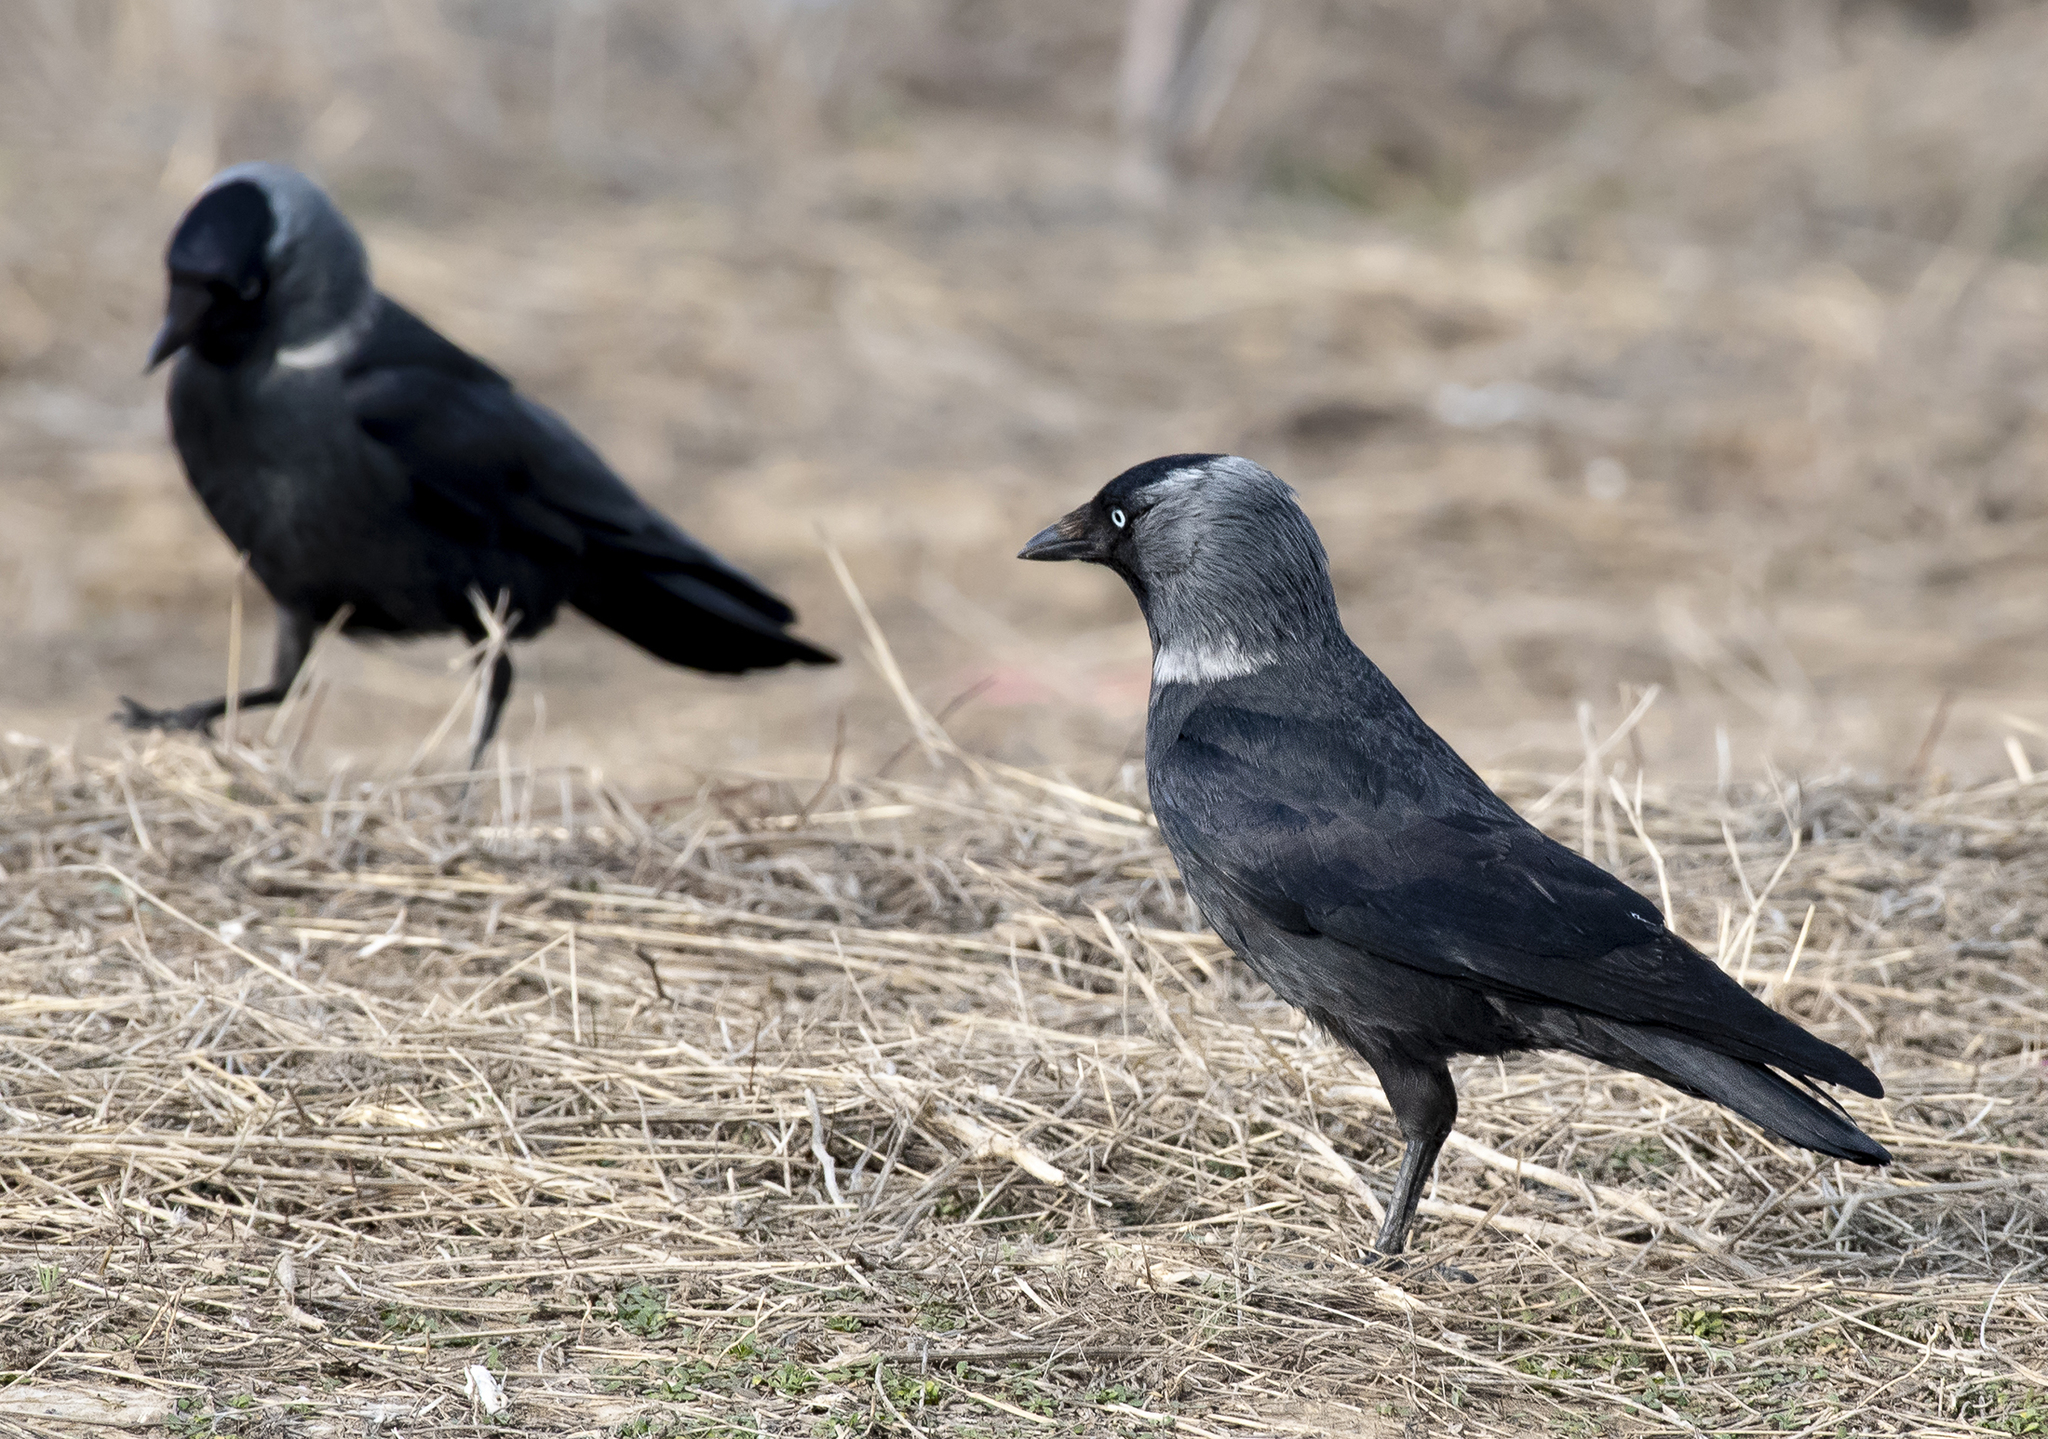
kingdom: Animalia
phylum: Chordata
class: Aves
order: Passeriformes
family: Corvidae
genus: Coloeus
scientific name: Coloeus monedula
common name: Western jackdaw
